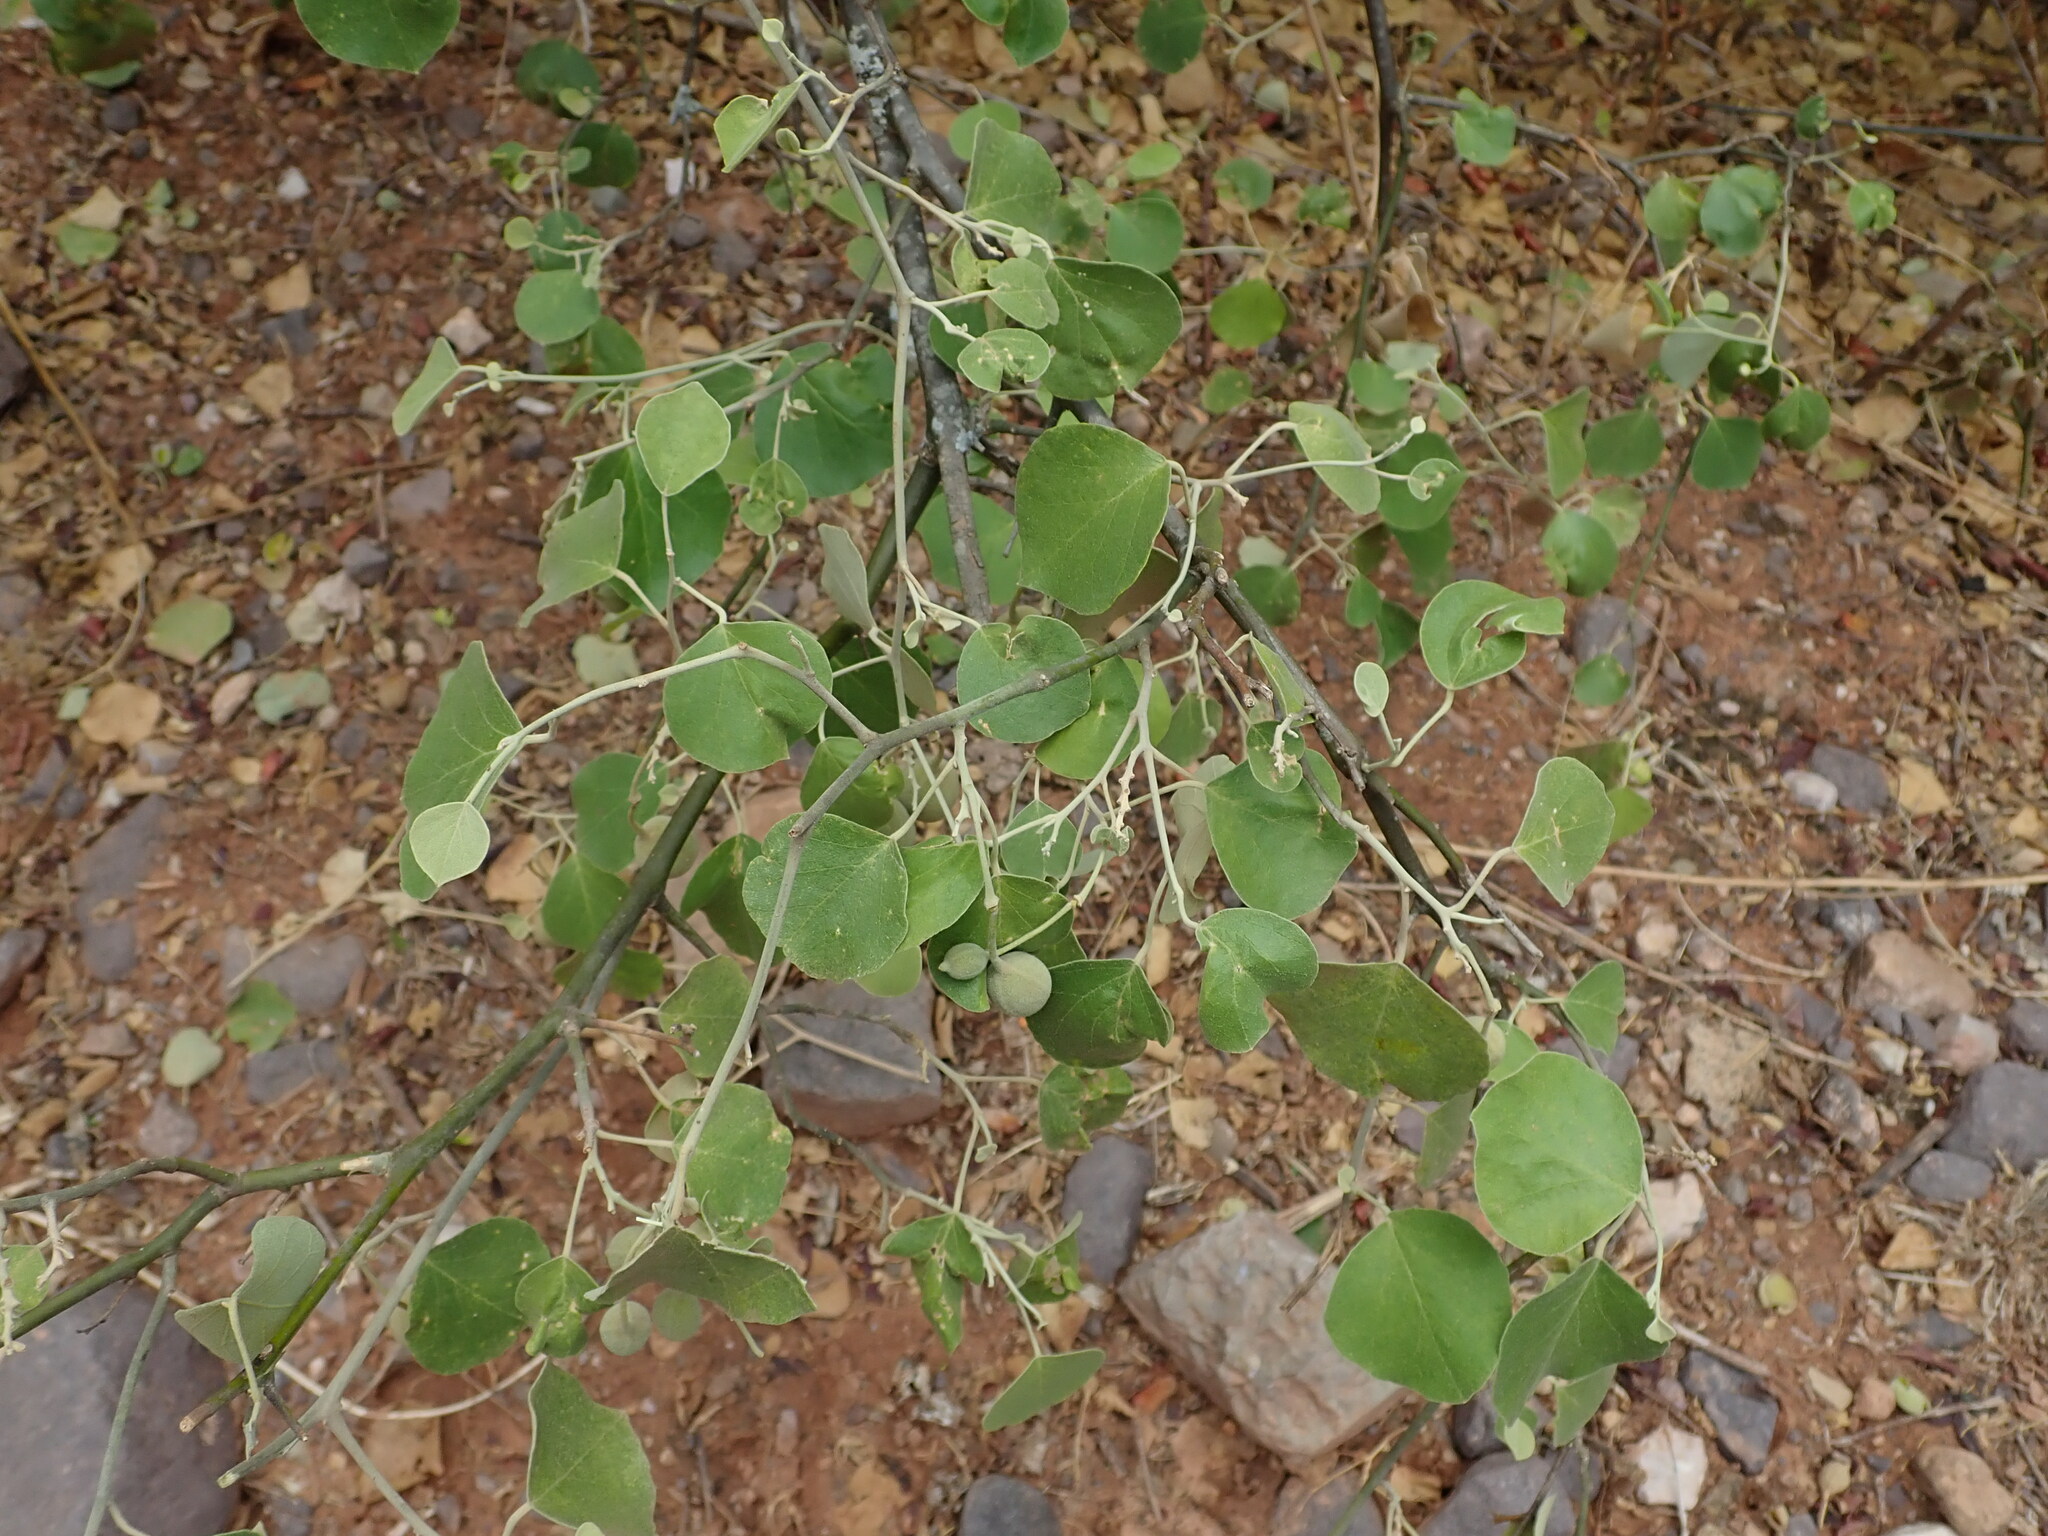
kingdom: Plantae
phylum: Tracheophyta
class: Magnoliopsida
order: Brassicales
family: Capparaceae
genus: Capparicordis
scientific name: Capparicordis tweedieana
